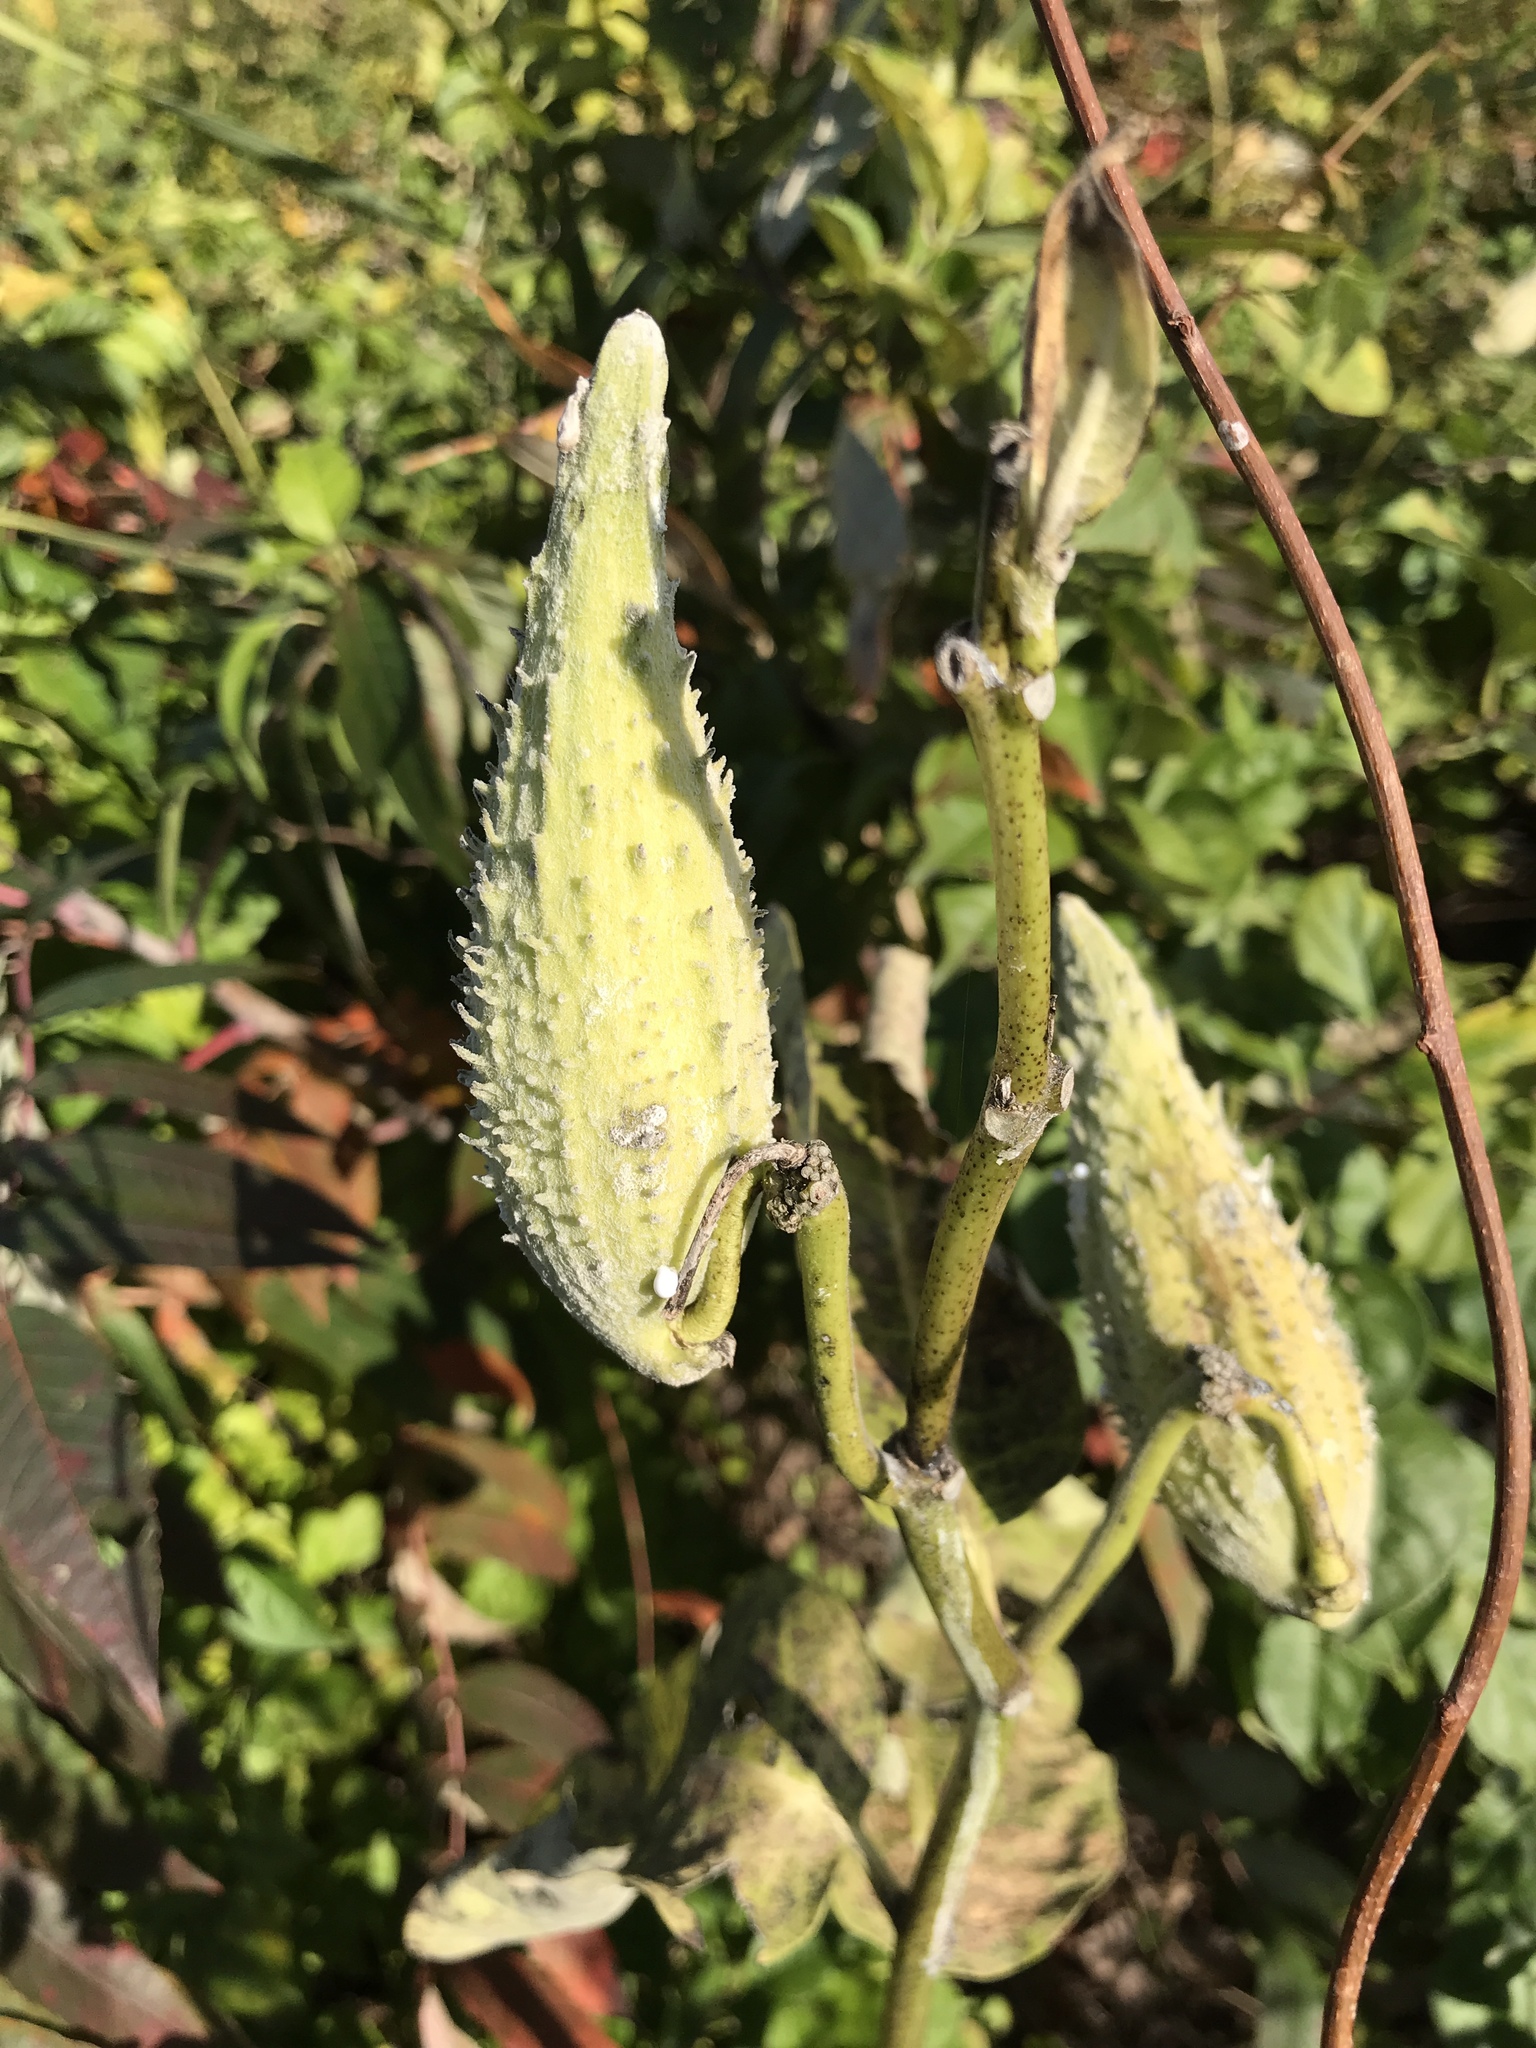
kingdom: Plantae
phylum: Tracheophyta
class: Magnoliopsida
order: Gentianales
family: Apocynaceae
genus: Asclepias
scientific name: Asclepias syriaca
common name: Common milkweed
